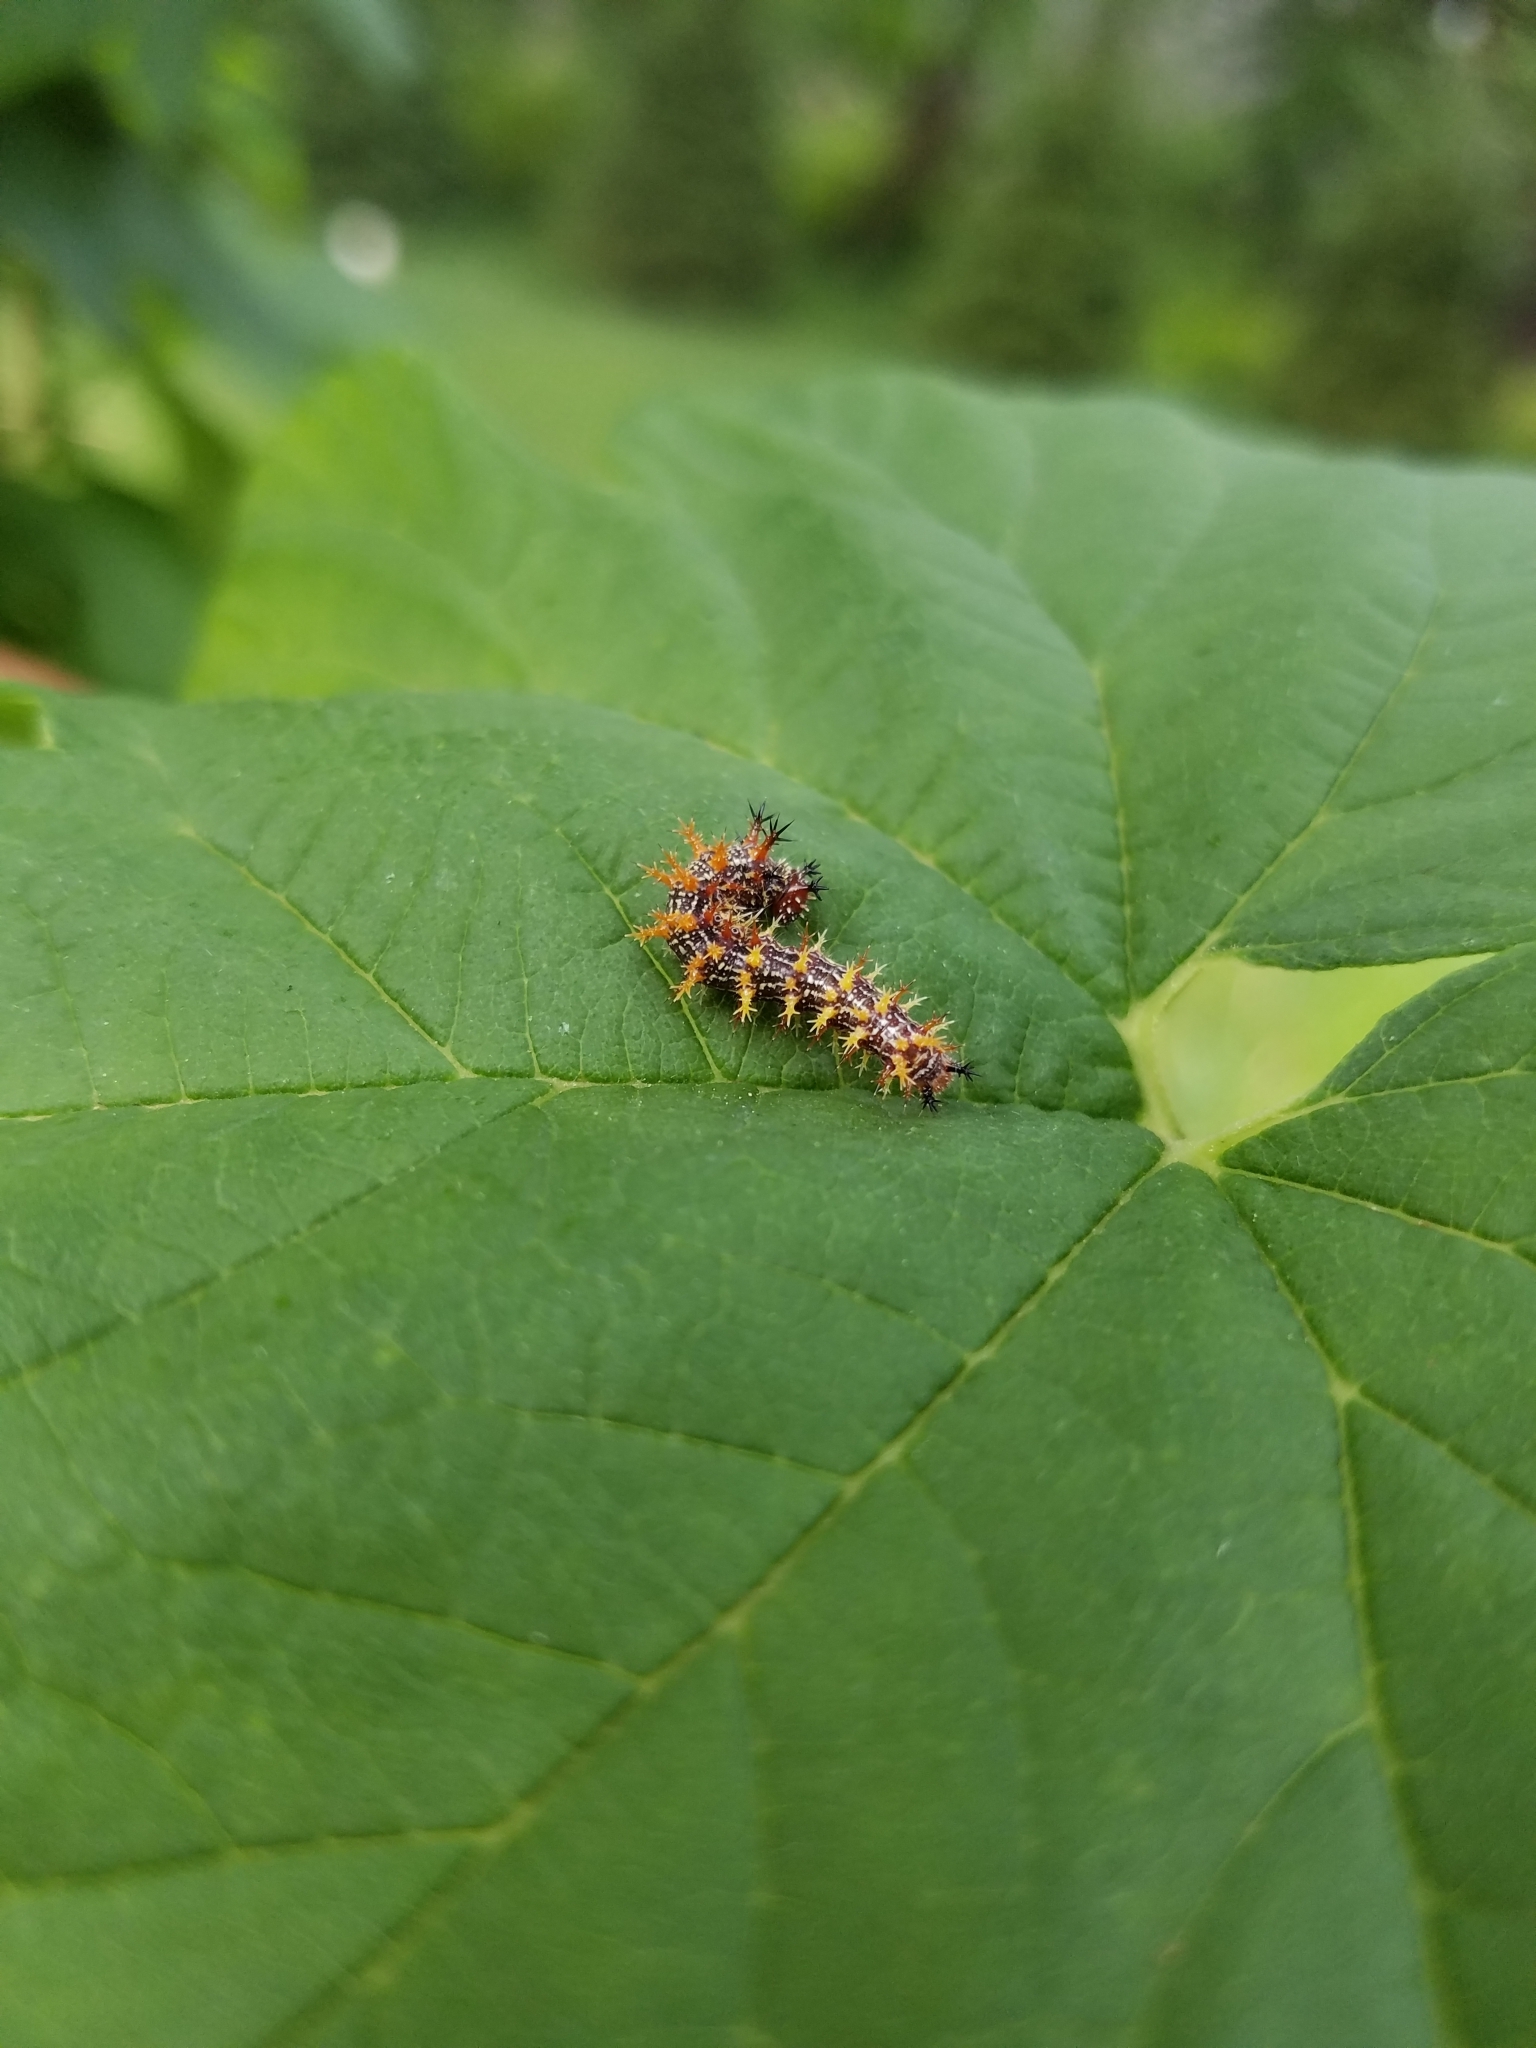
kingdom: Animalia
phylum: Arthropoda
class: Insecta
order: Lepidoptera
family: Nymphalidae
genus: Polygonia
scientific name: Polygonia interrogationis
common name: Question mark
